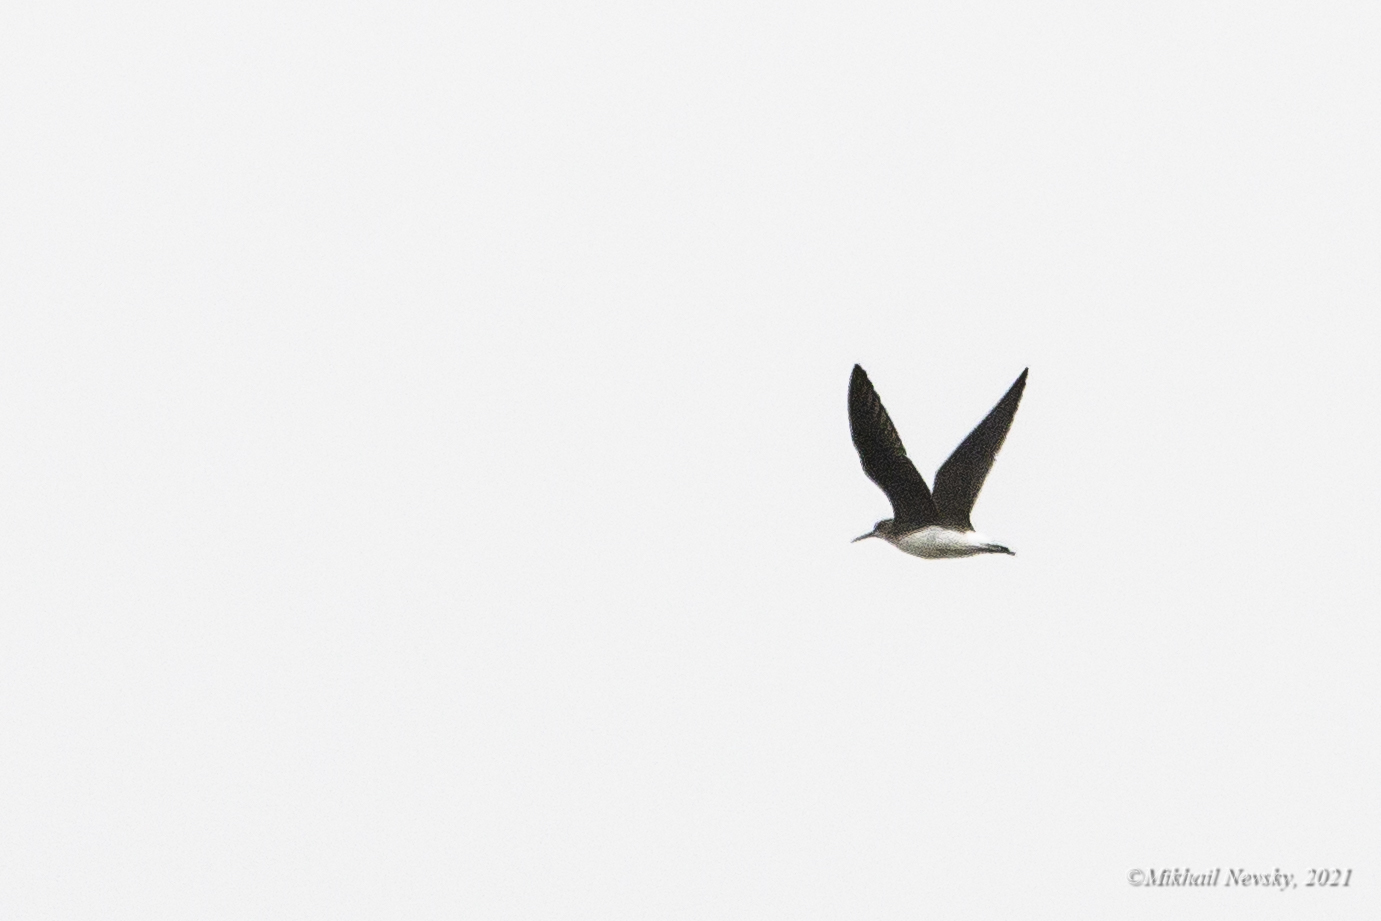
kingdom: Animalia
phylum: Chordata
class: Aves
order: Charadriiformes
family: Scolopacidae
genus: Tringa
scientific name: Tringa ochropus
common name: Green sandpiper
